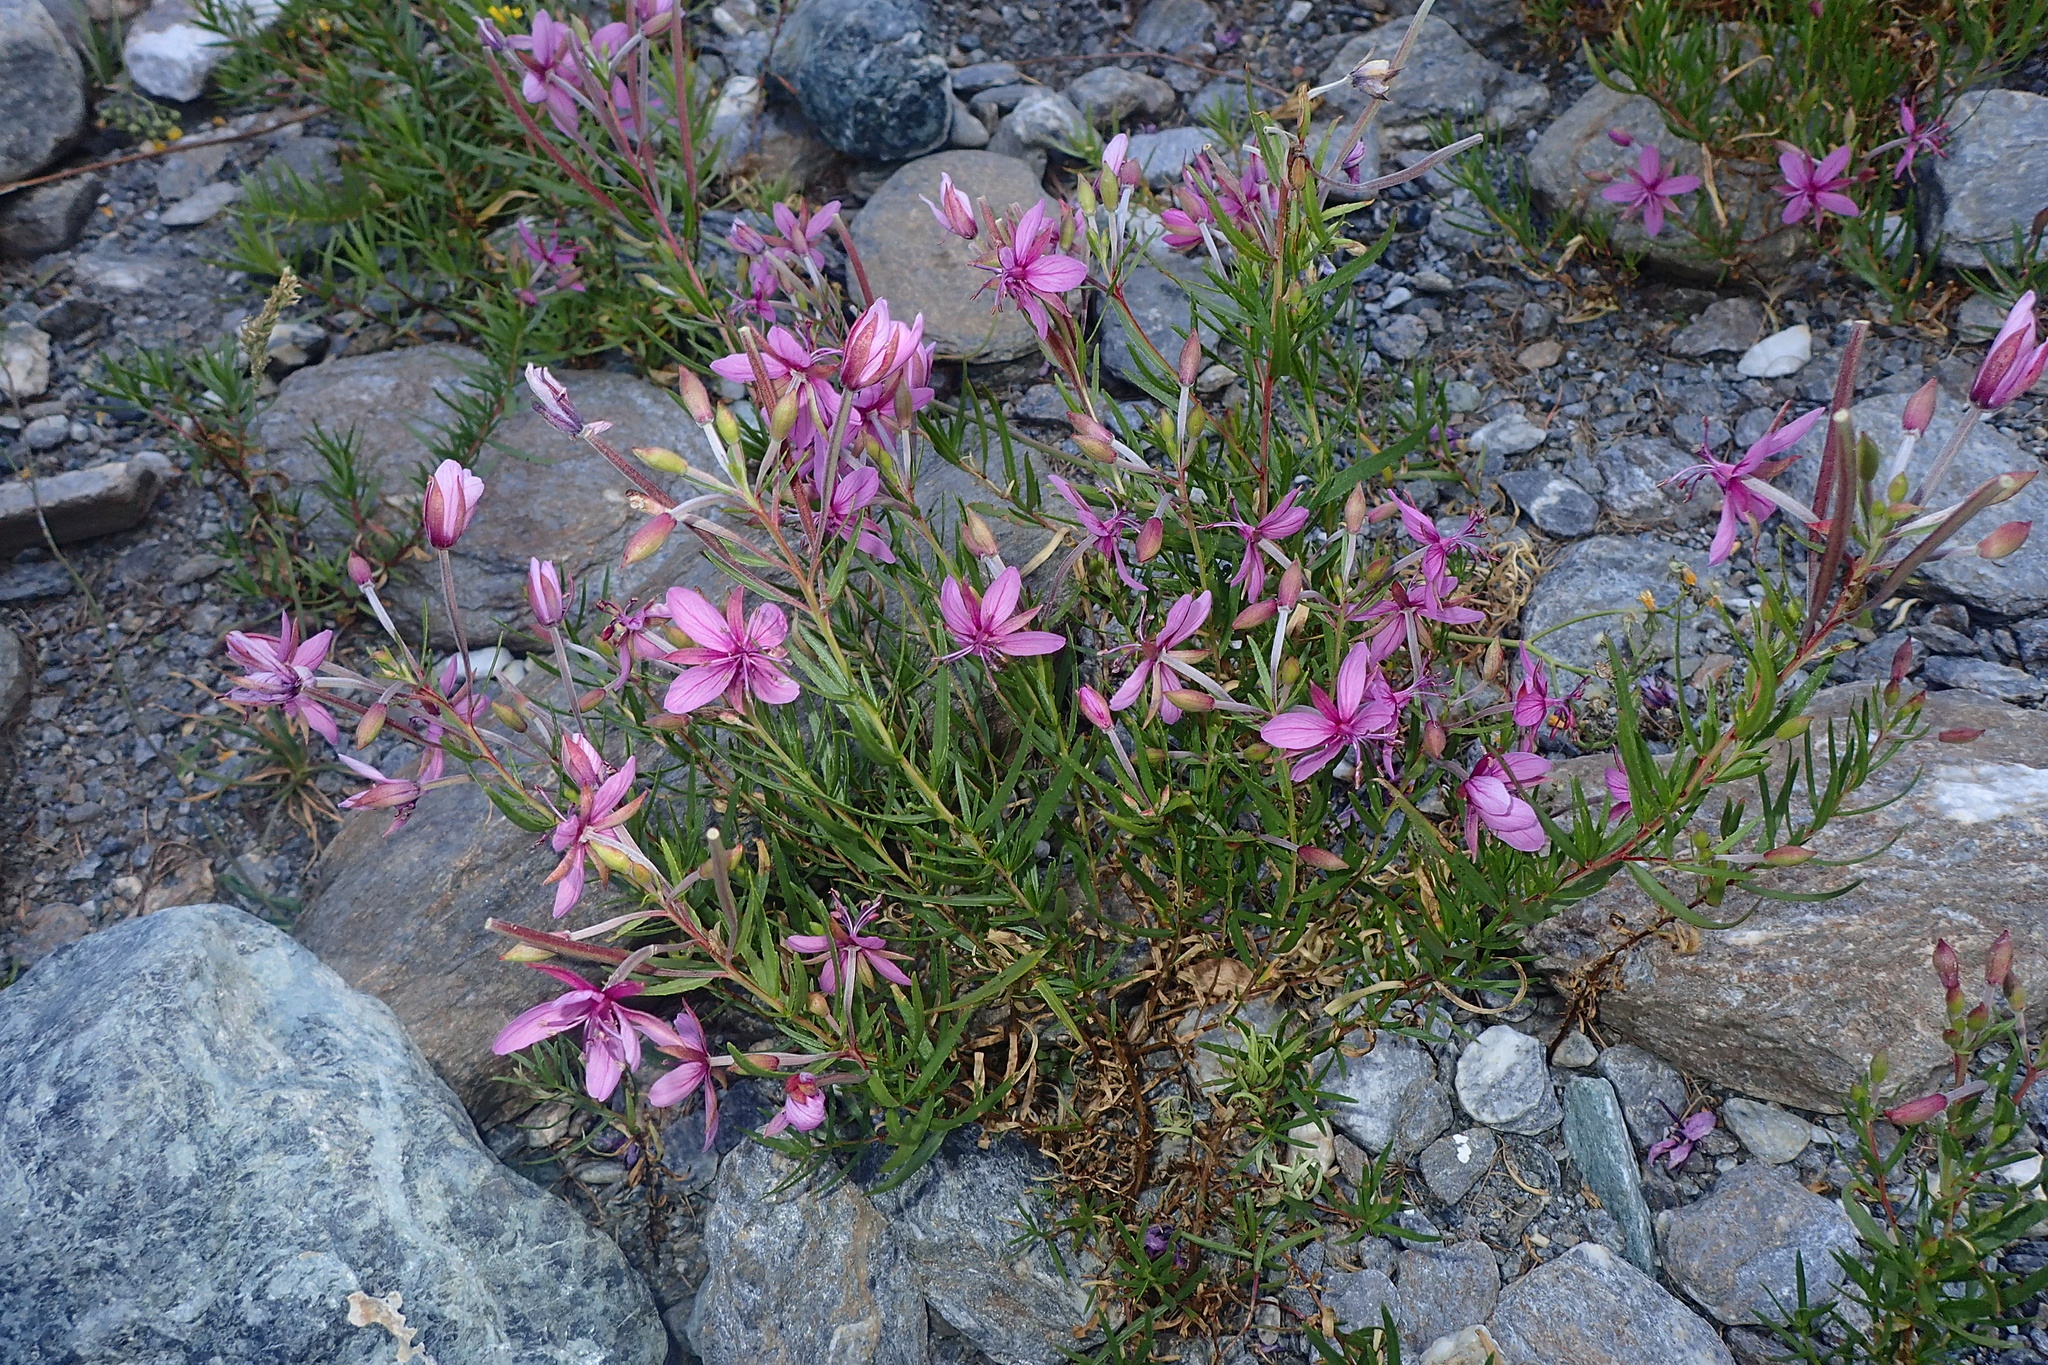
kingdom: Plantae
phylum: Tracheophyta
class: Magnoliopsida
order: Myrtales
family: Onagraceae
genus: Chamaenerion
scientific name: Chamaenerion dodonaei
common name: Rosemary-leaved willowherb
